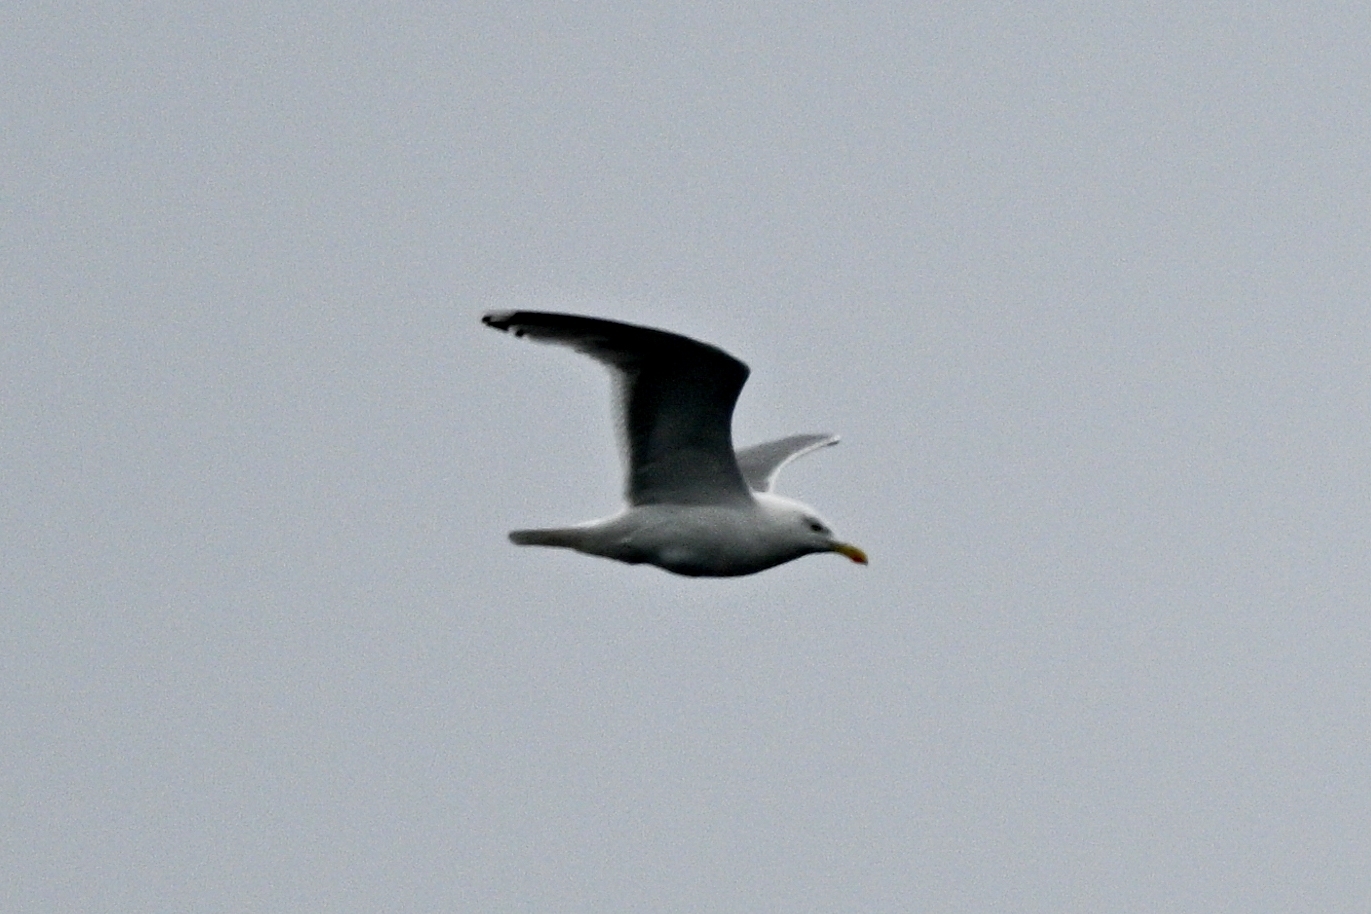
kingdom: Animalia
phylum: Chordata
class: Aves
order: Charadriiformes
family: Laridae
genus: Larus
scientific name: Larus argentatus
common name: Herring gull
